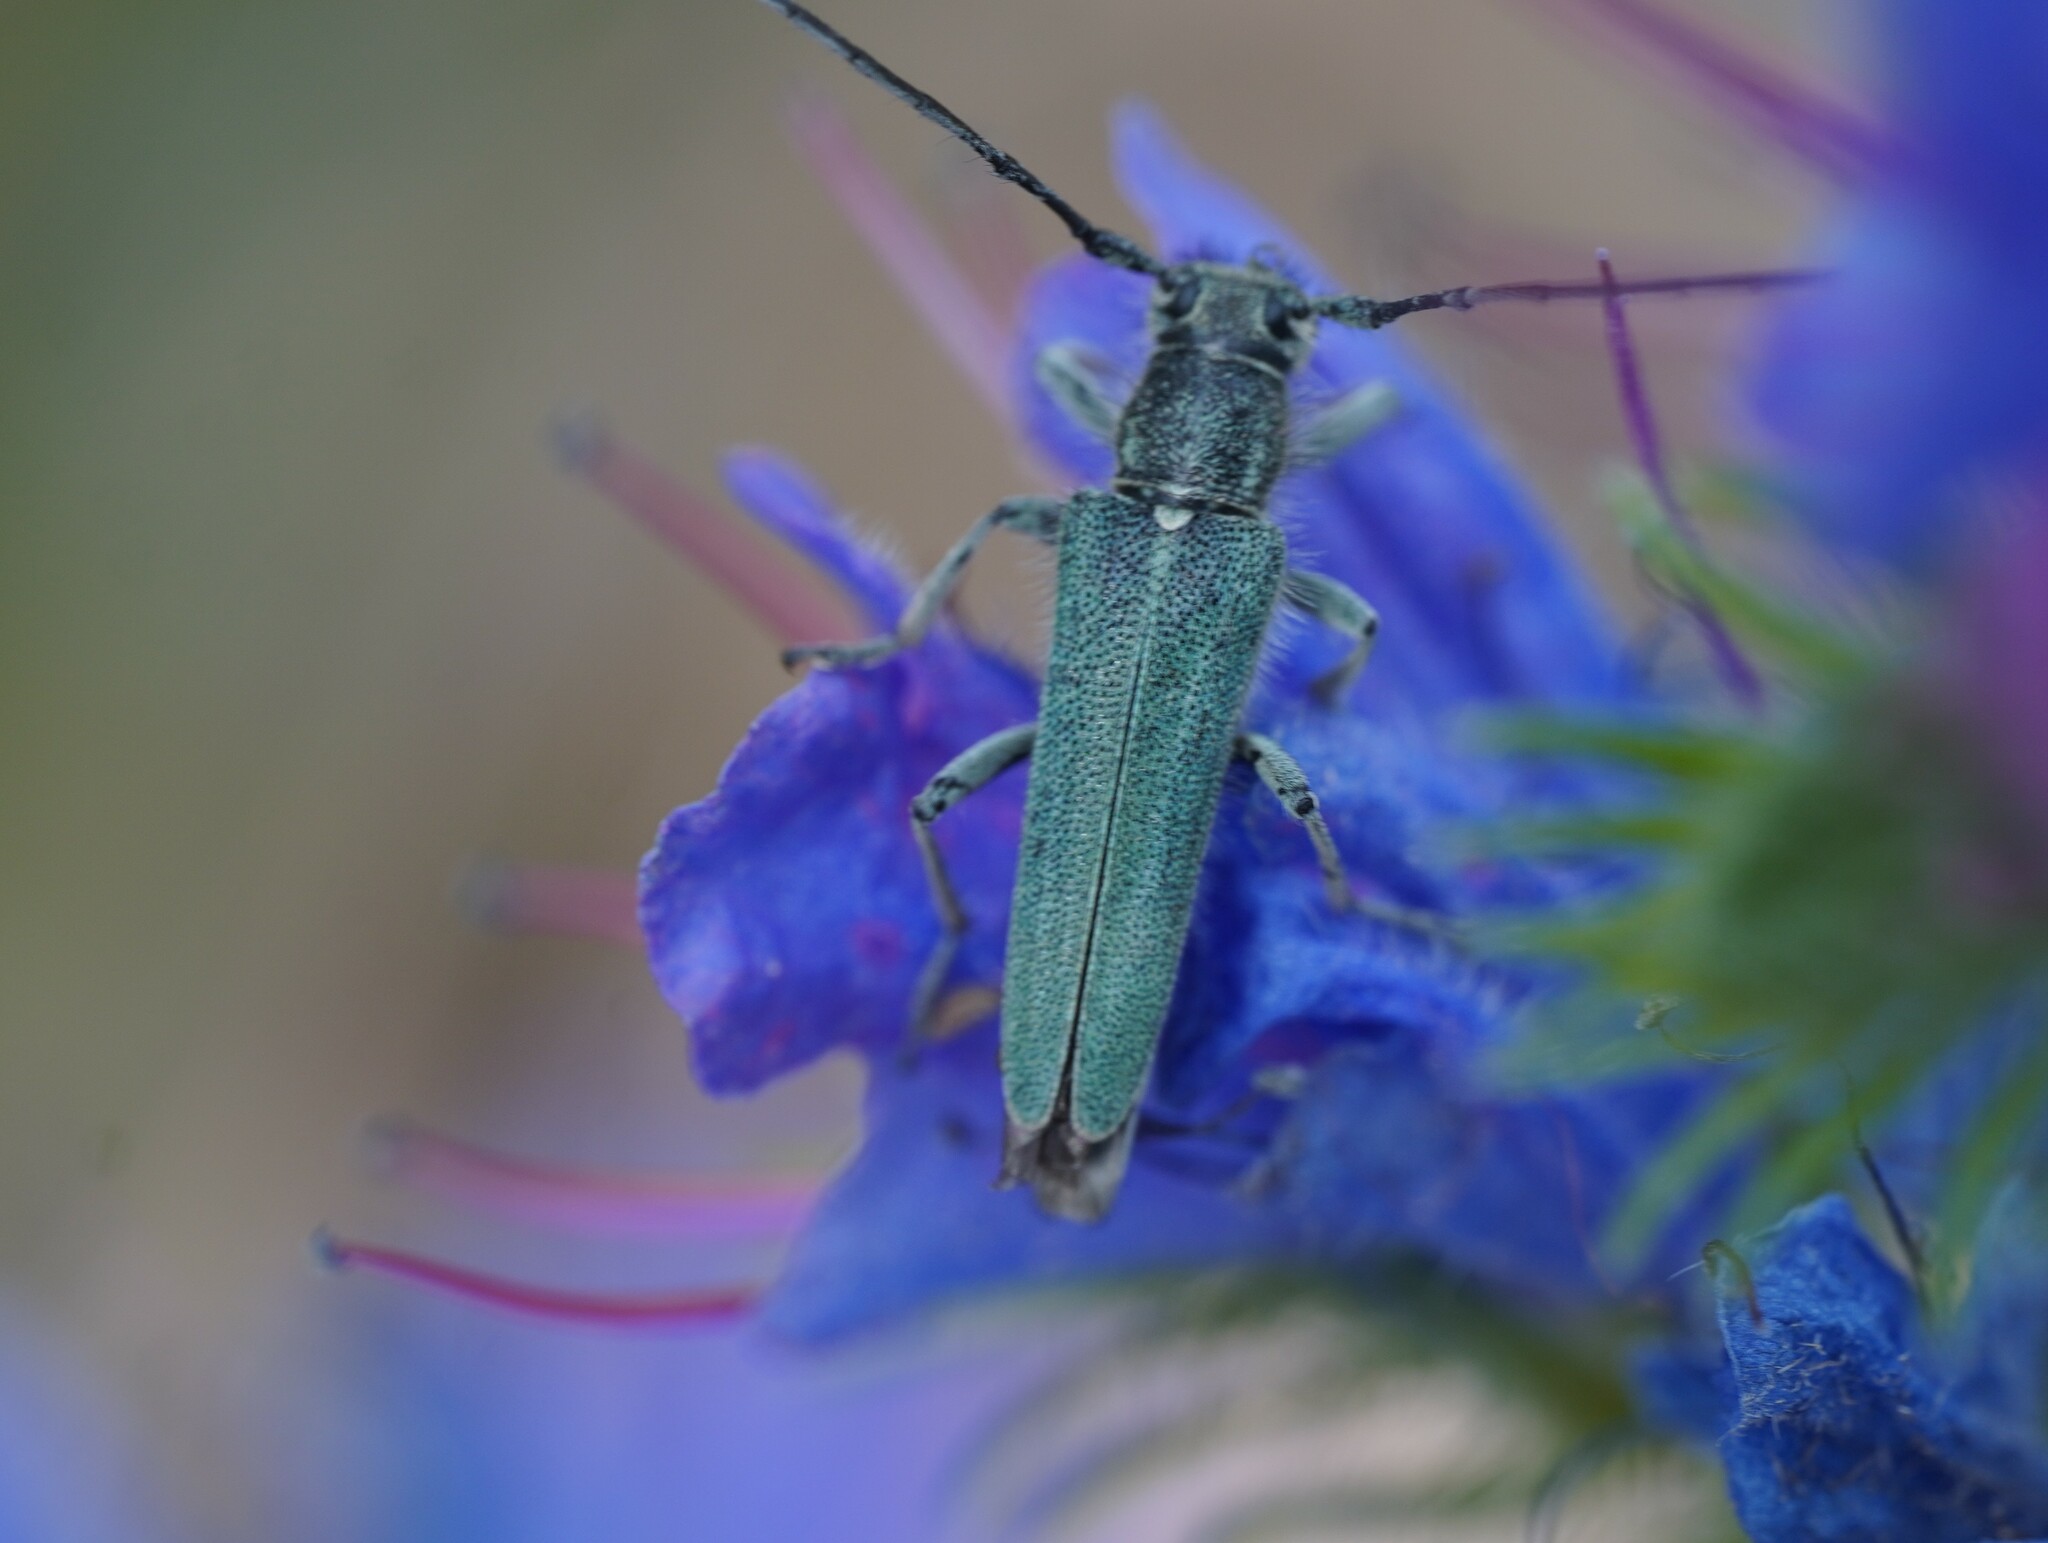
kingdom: Animalia
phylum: Arthropoda
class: Insecta
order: Coleoptera
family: Cerambycidae
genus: Phytoecia
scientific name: Phytoecia coerulescens
